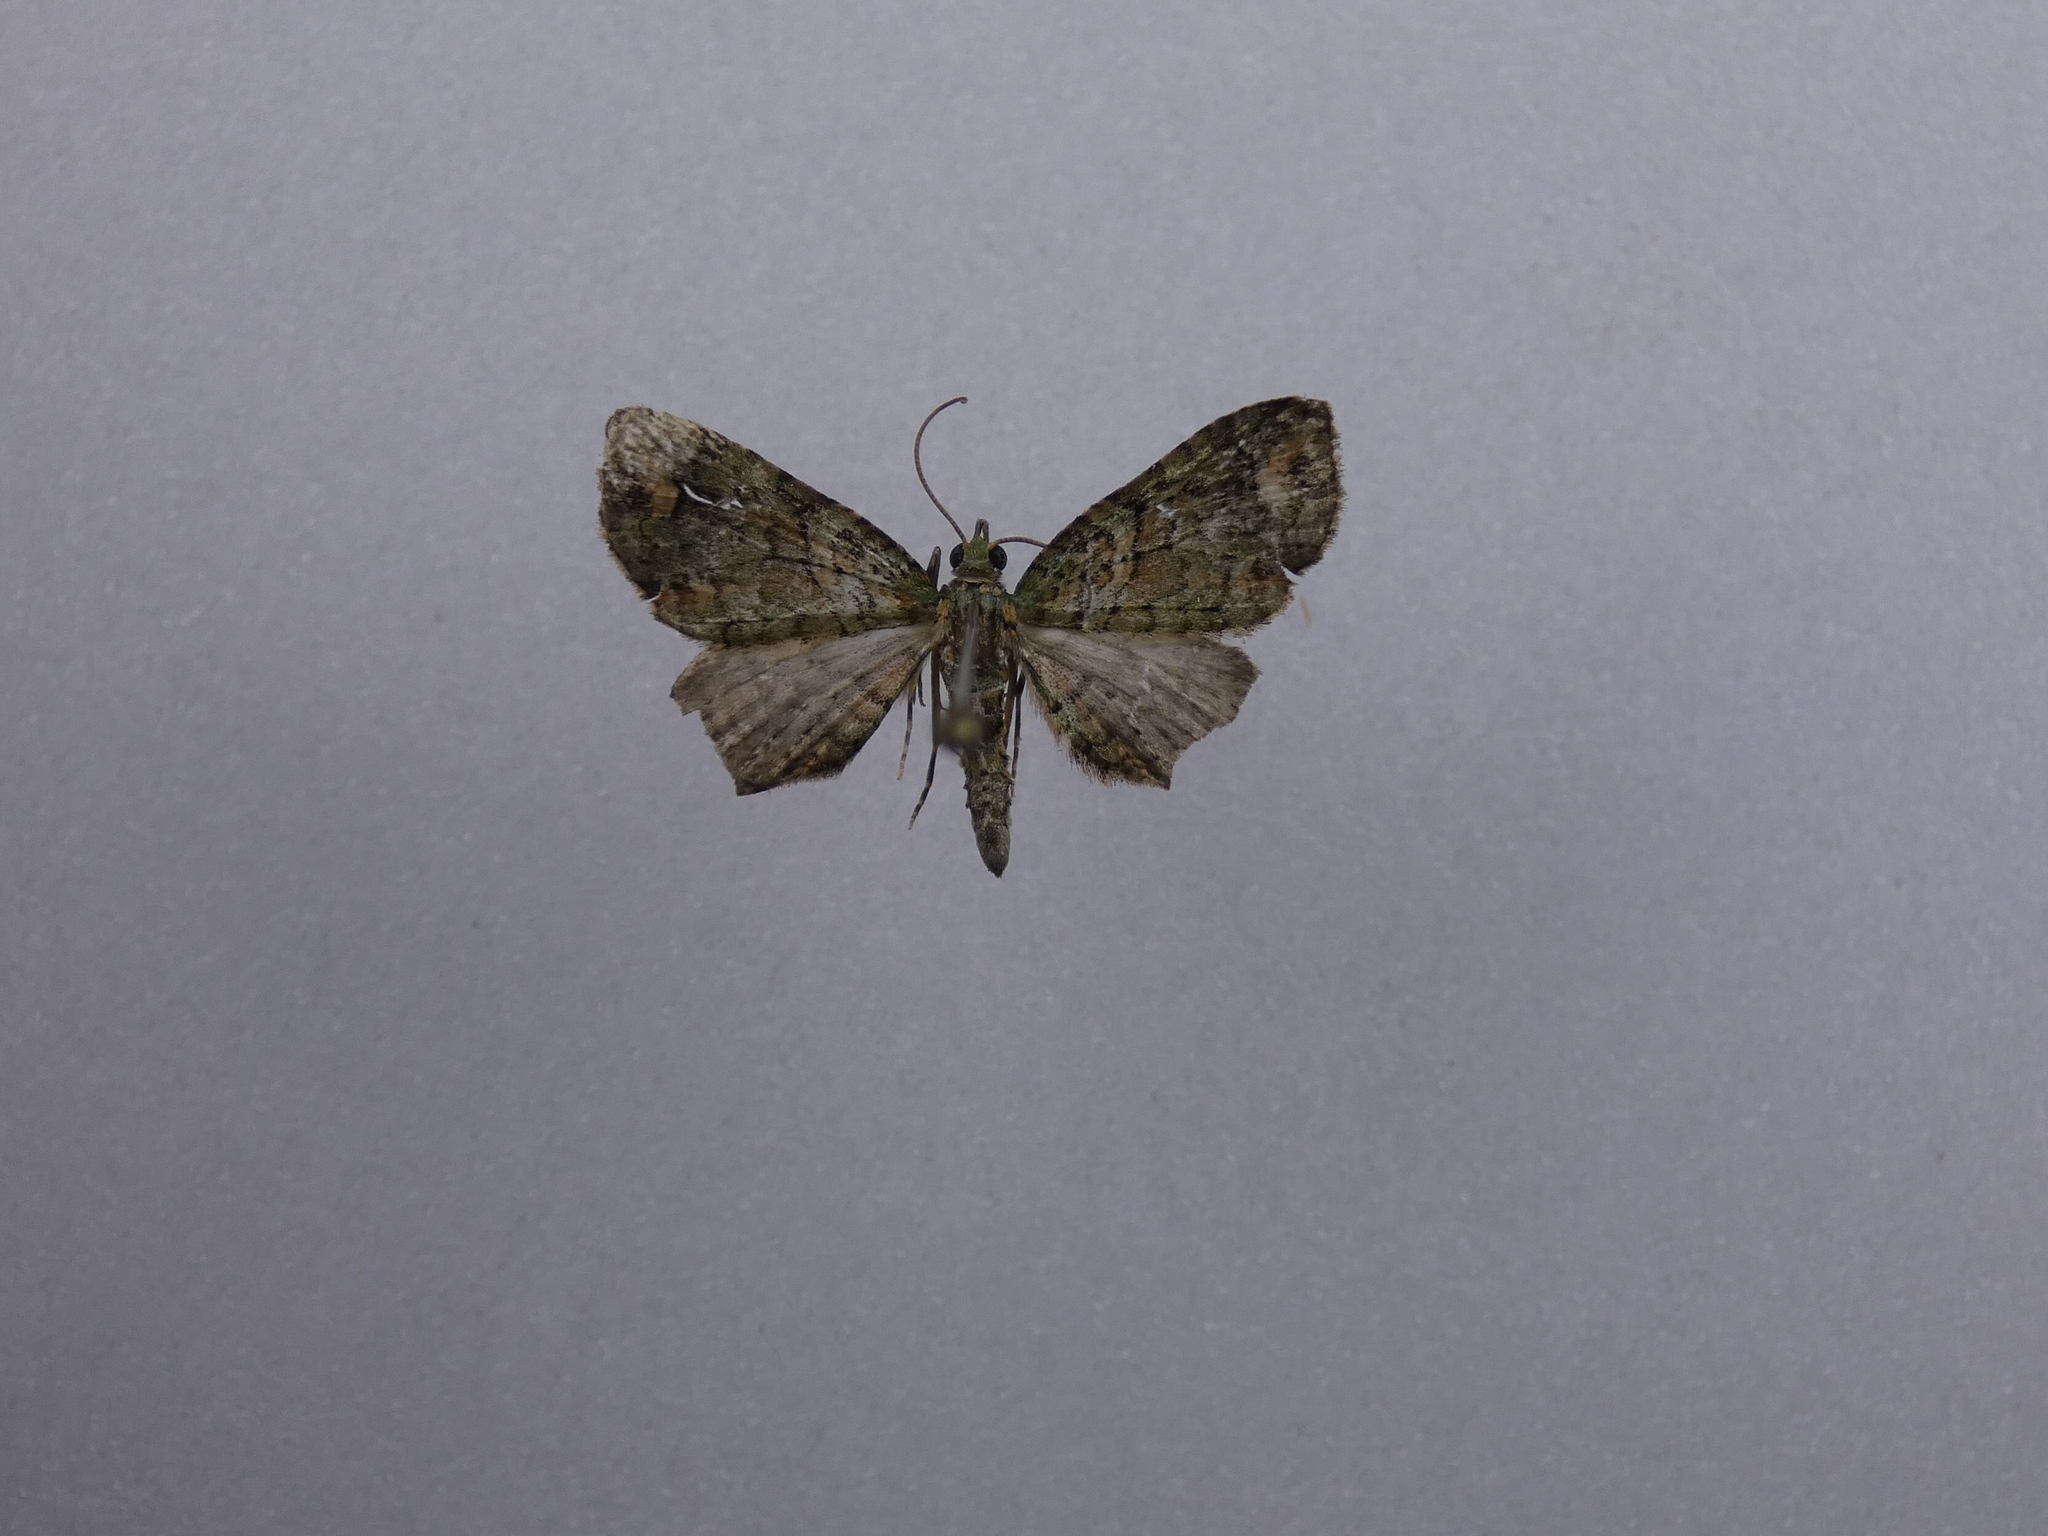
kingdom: Animalia
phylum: Arthropoda
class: Insecta
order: Lepidoptera
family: Geometridae
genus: Idaea
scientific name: Idaea mutanda
